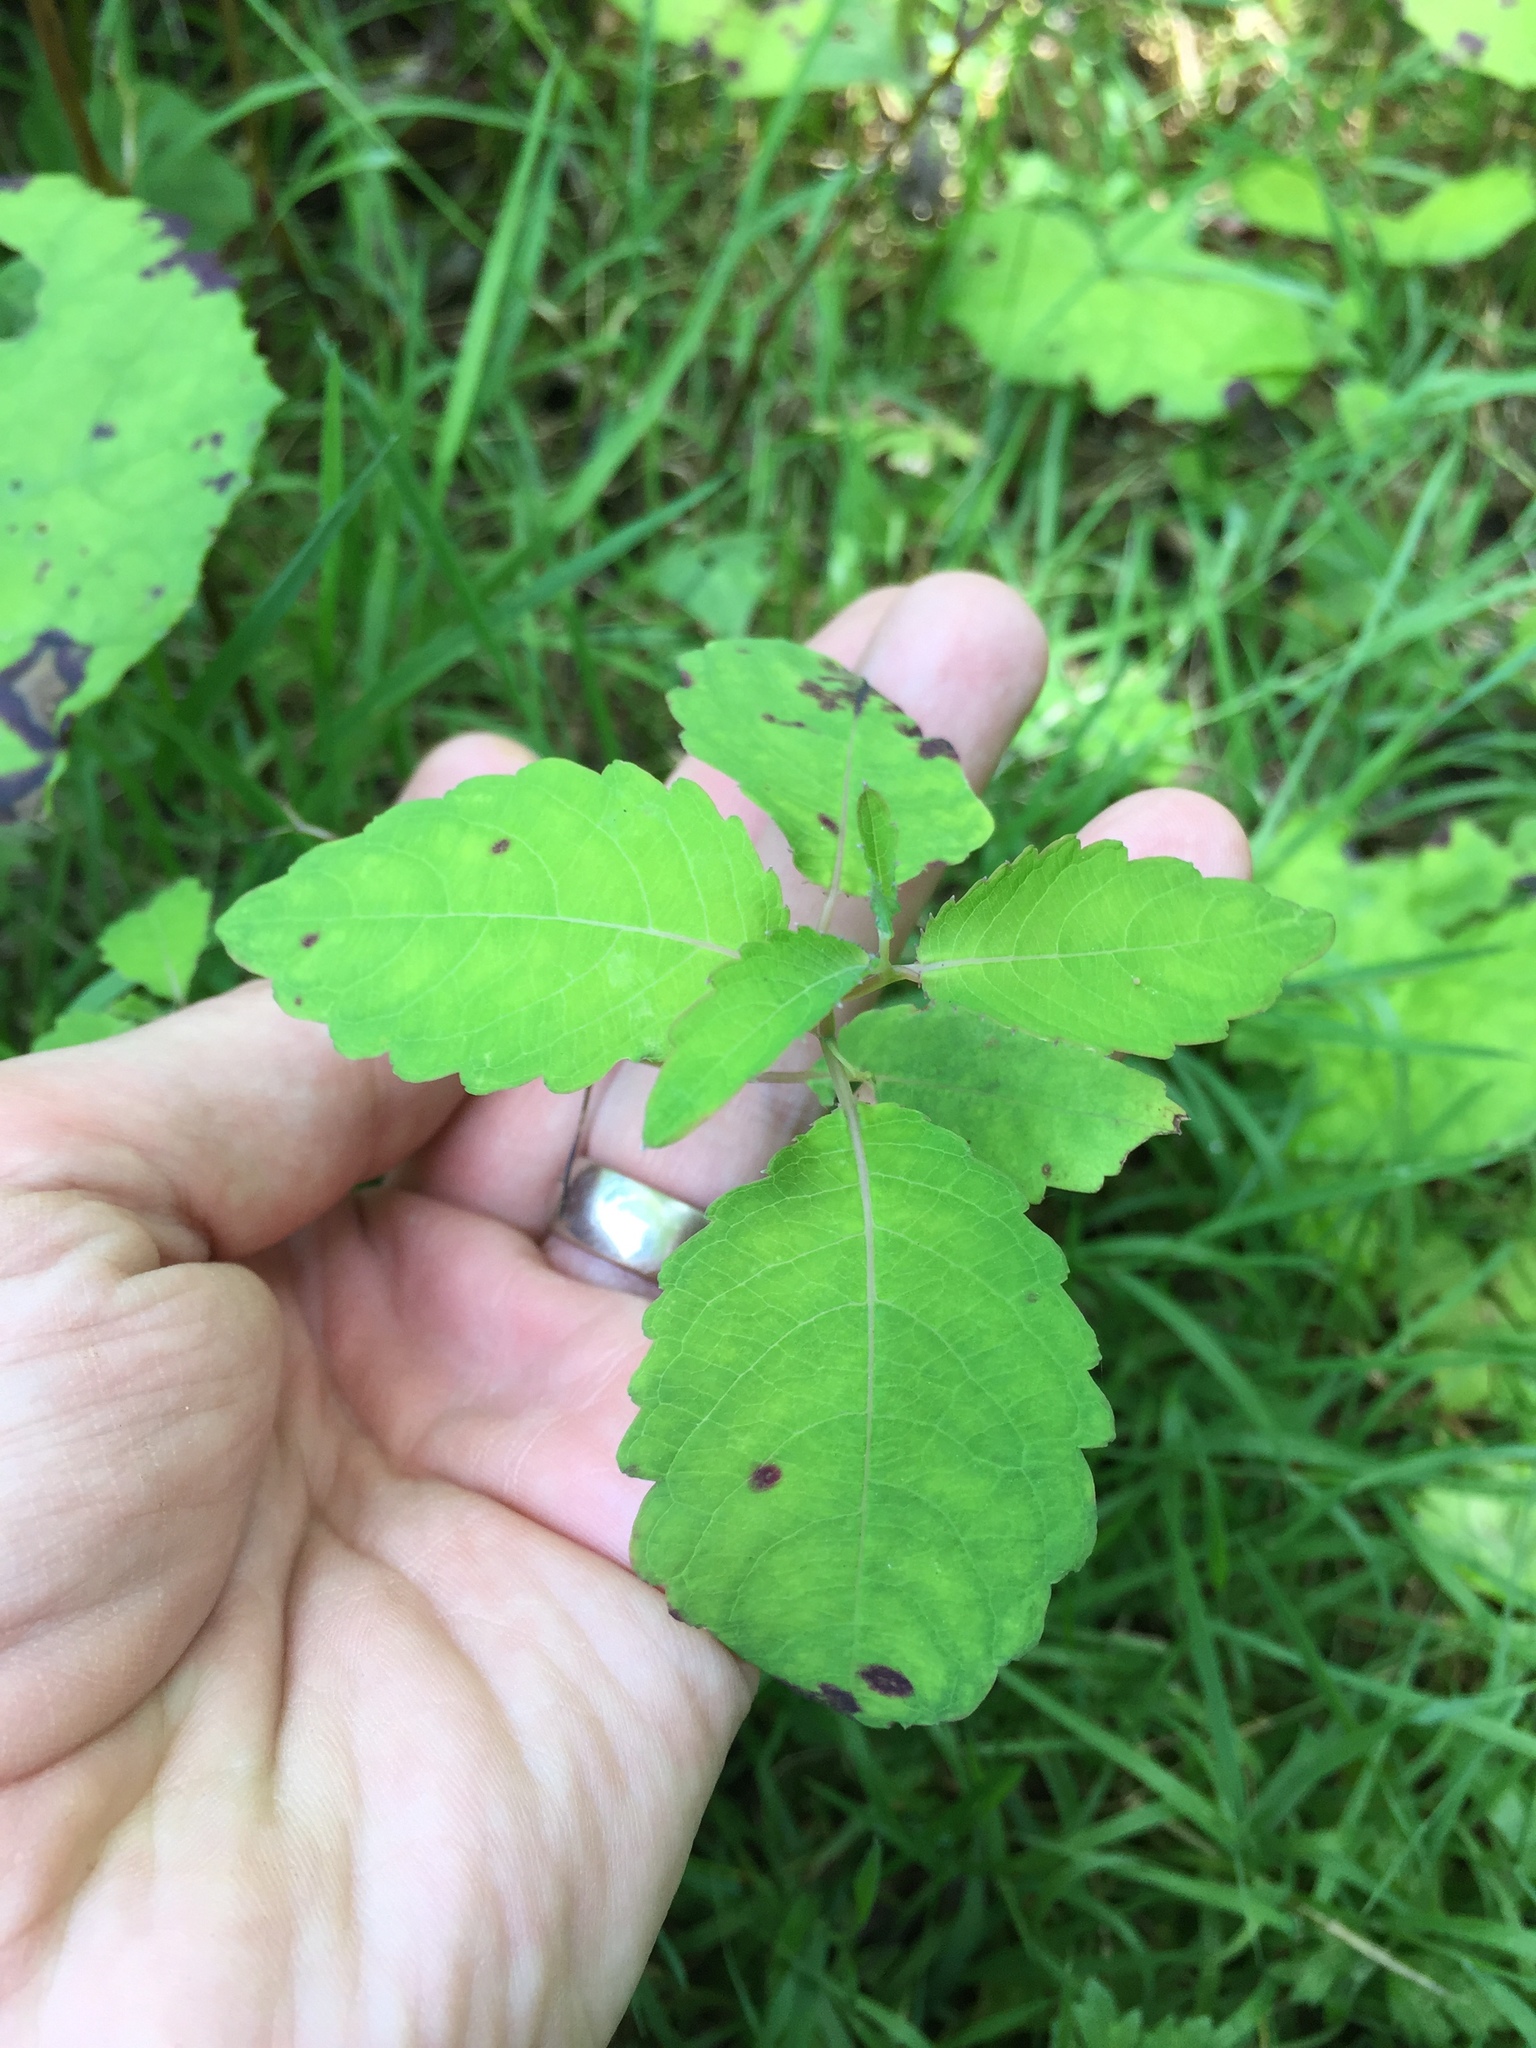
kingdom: Plantae
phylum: Tracheophyta
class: Magnoliopsida
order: Ericales
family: Balsaminaceae
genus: Impatiens
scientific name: Impatiens pallida
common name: Pale snapweed
